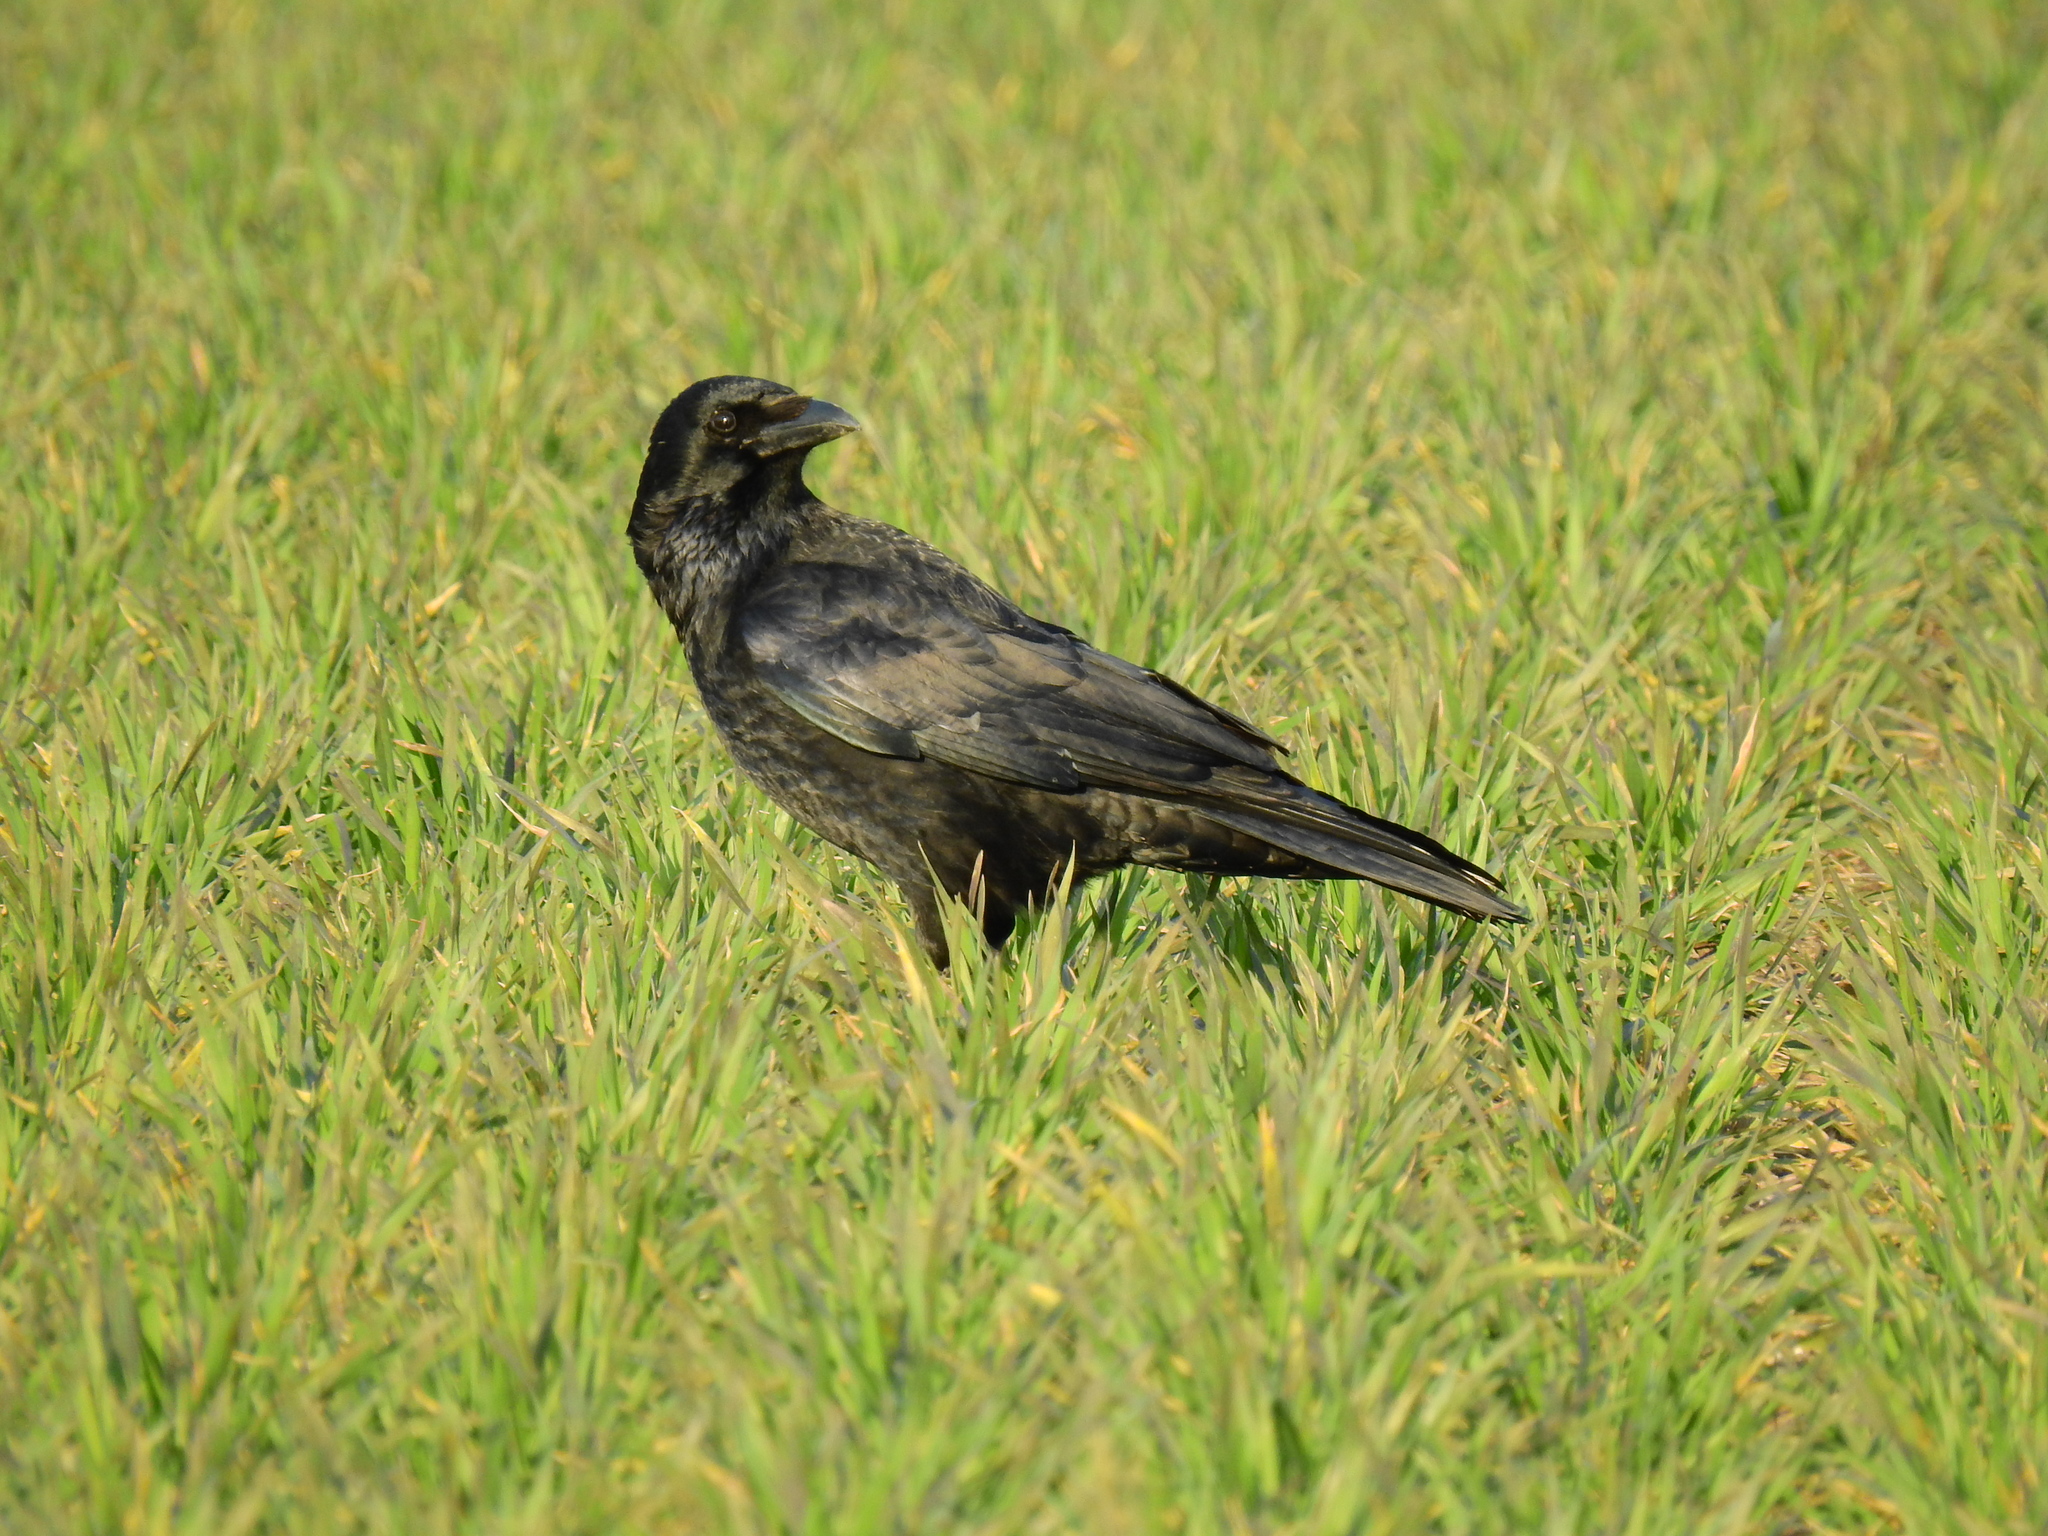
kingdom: Animalia
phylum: Chordata
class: Aves
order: Passeriformes
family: Corvidae
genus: Corvus
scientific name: Corvus corone
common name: Carrion crow
